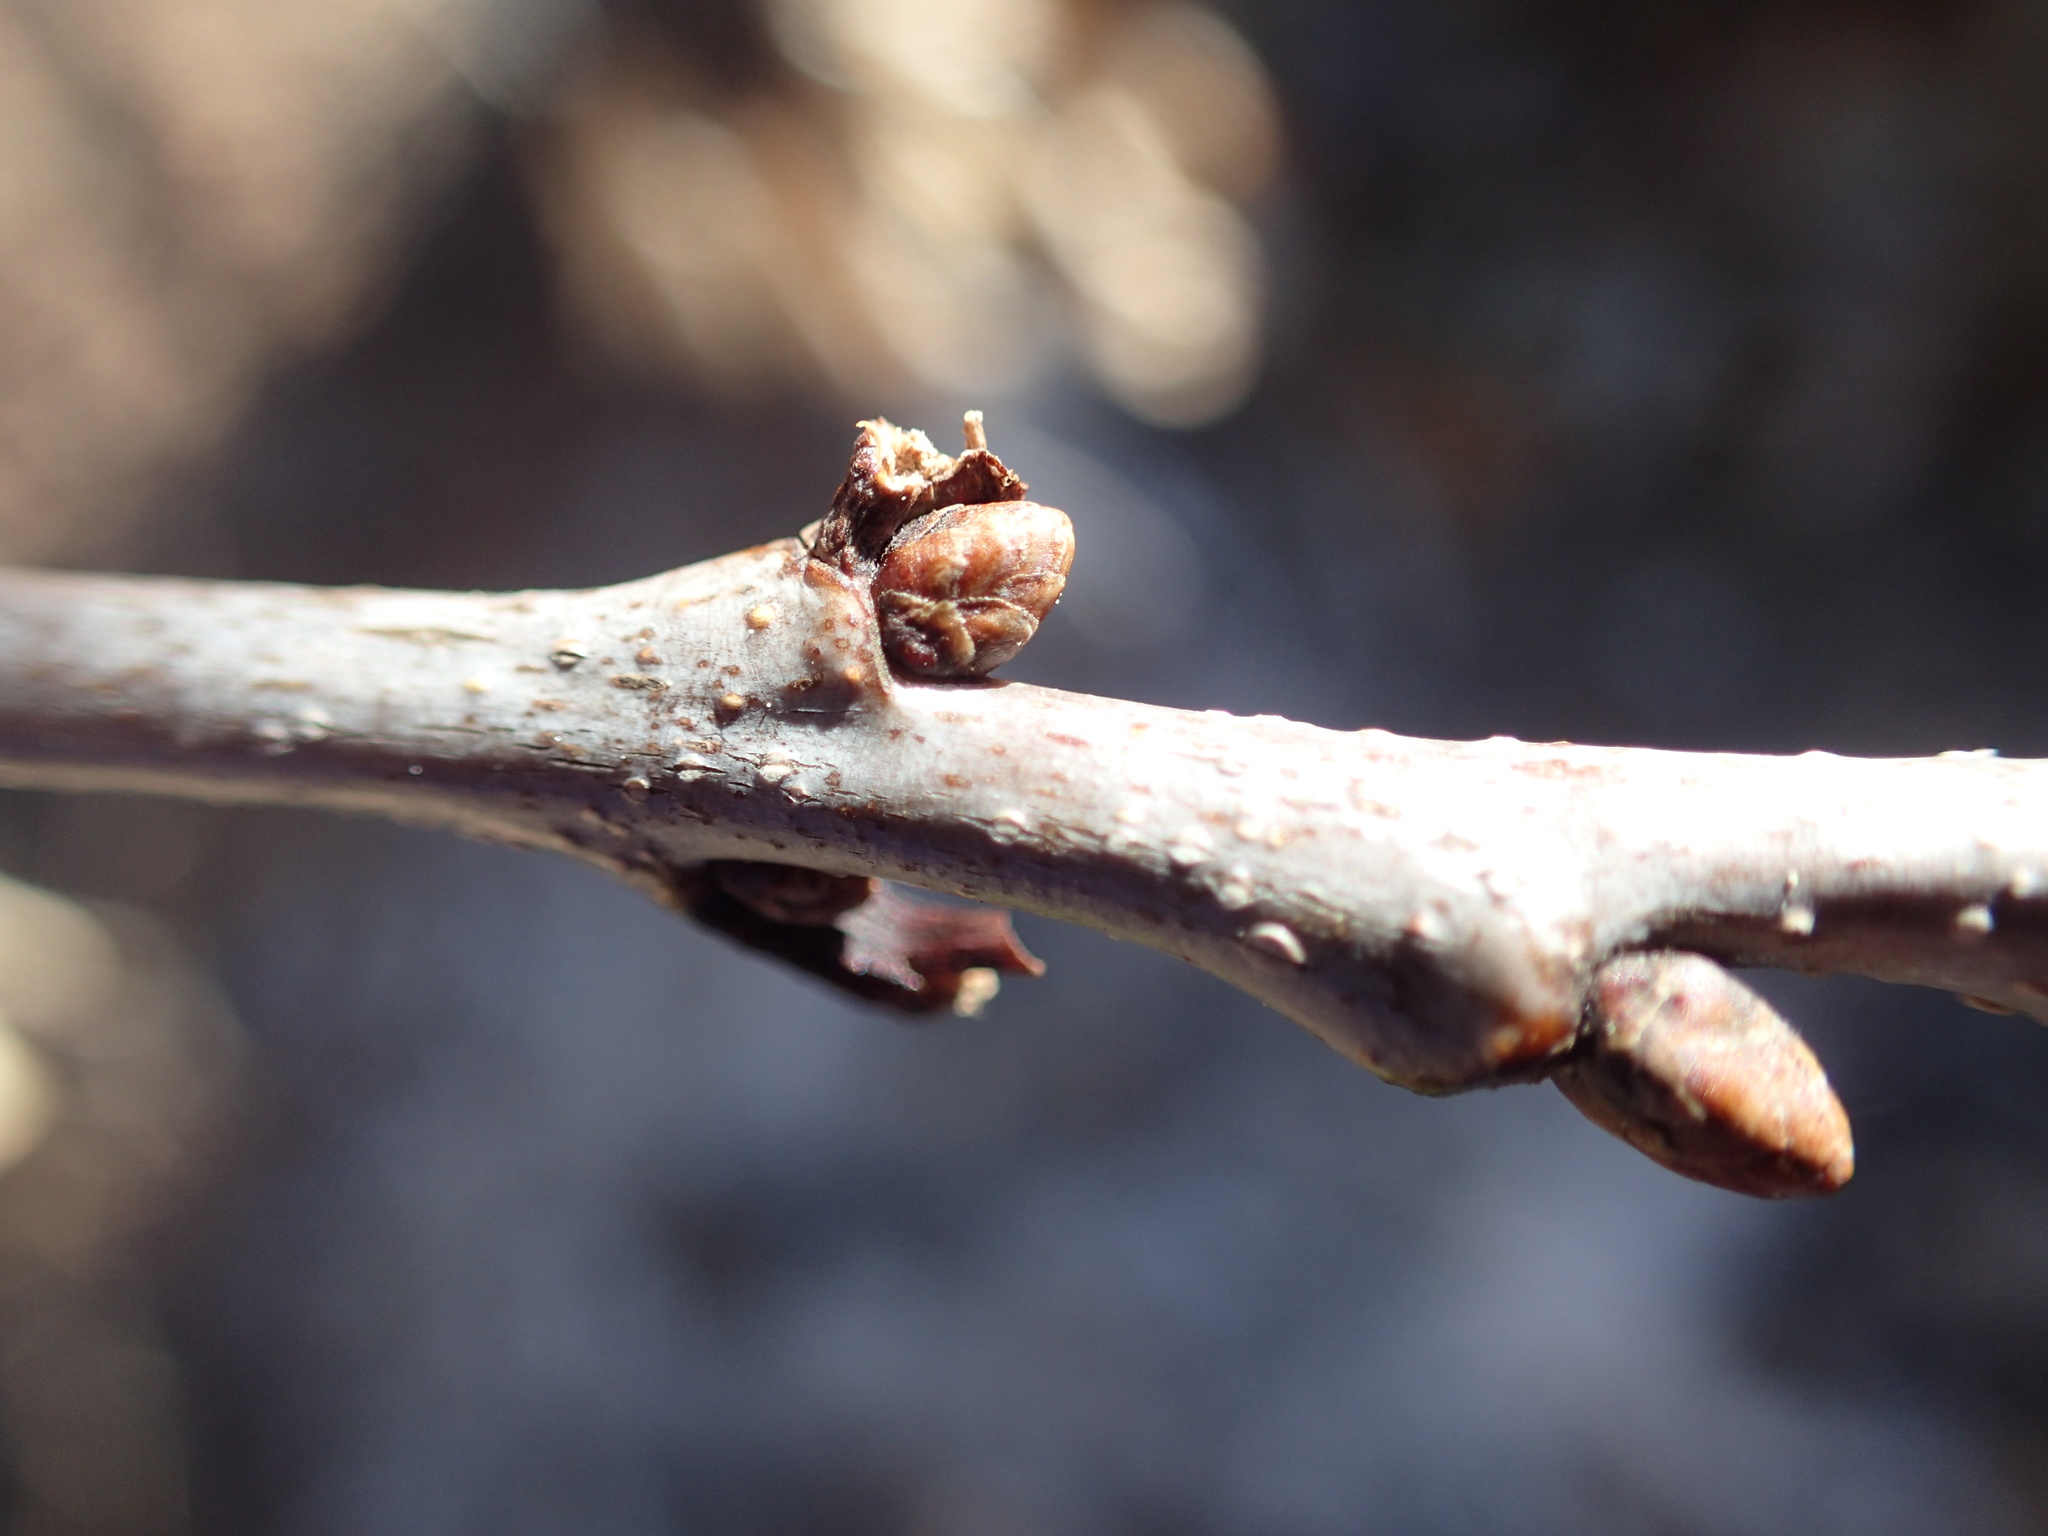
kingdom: Plantae
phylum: Tracheophyta
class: Magnoliopsida
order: Fagales
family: Fagaceae
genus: Quercus
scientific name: Quercus alba
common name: White oak
